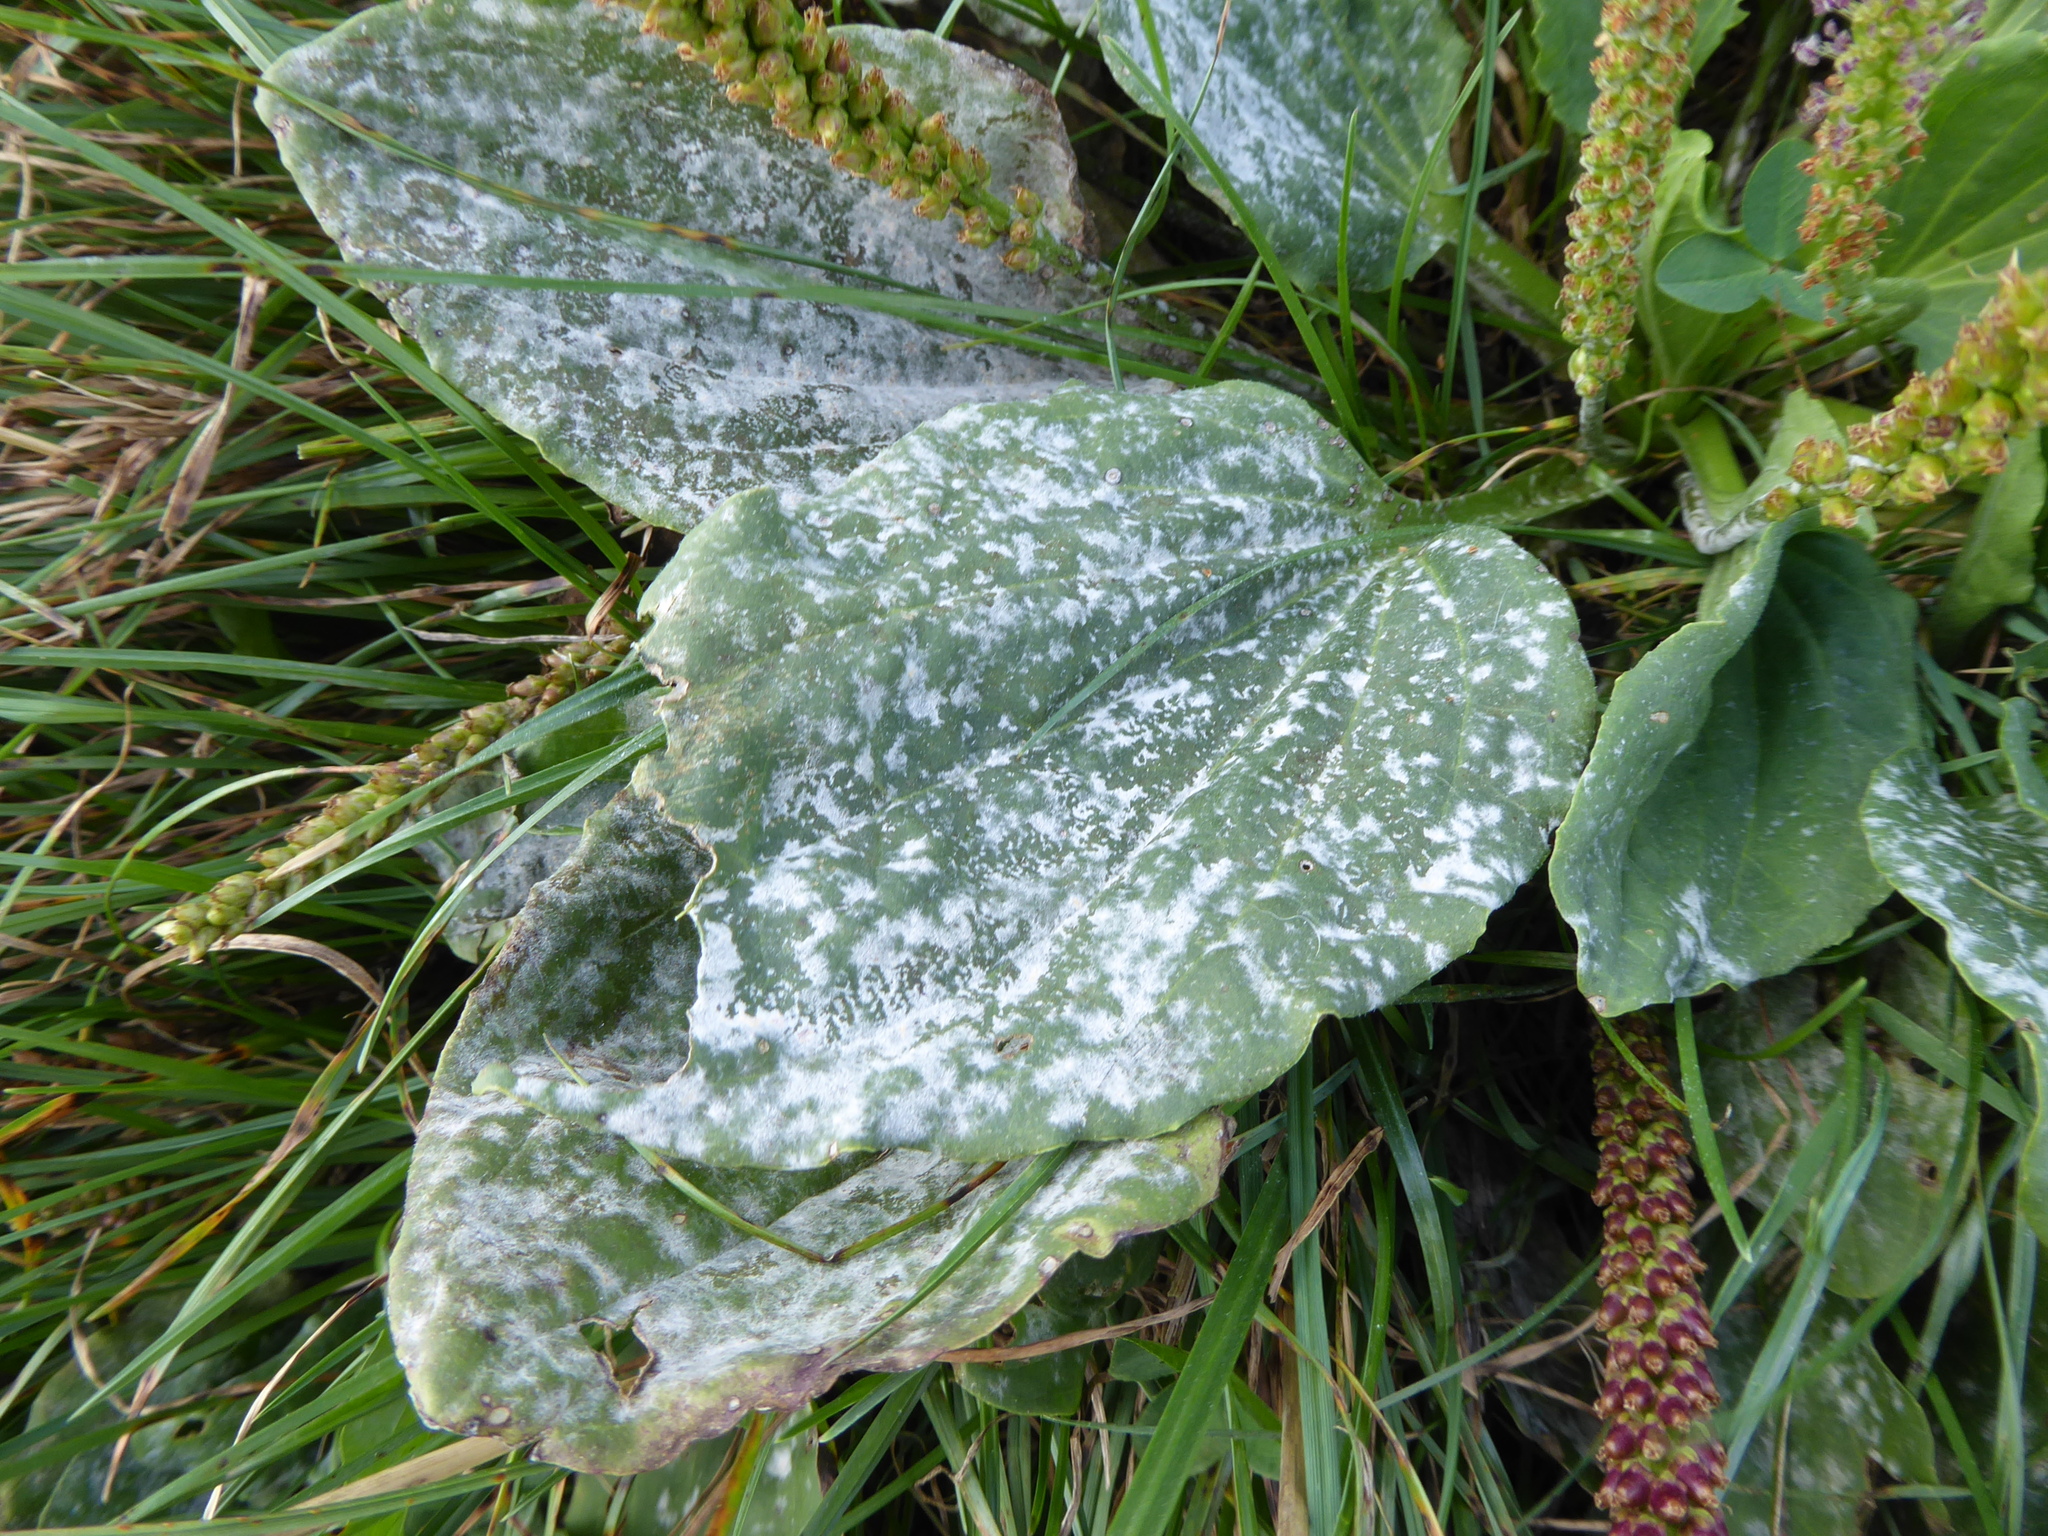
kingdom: Fungi
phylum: Ascomycota
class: Leotiomycetes
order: Helotiales
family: Erysiphaceae
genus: Golovinomyces
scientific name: Golovinomyces sordidus
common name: Plantain mildew
